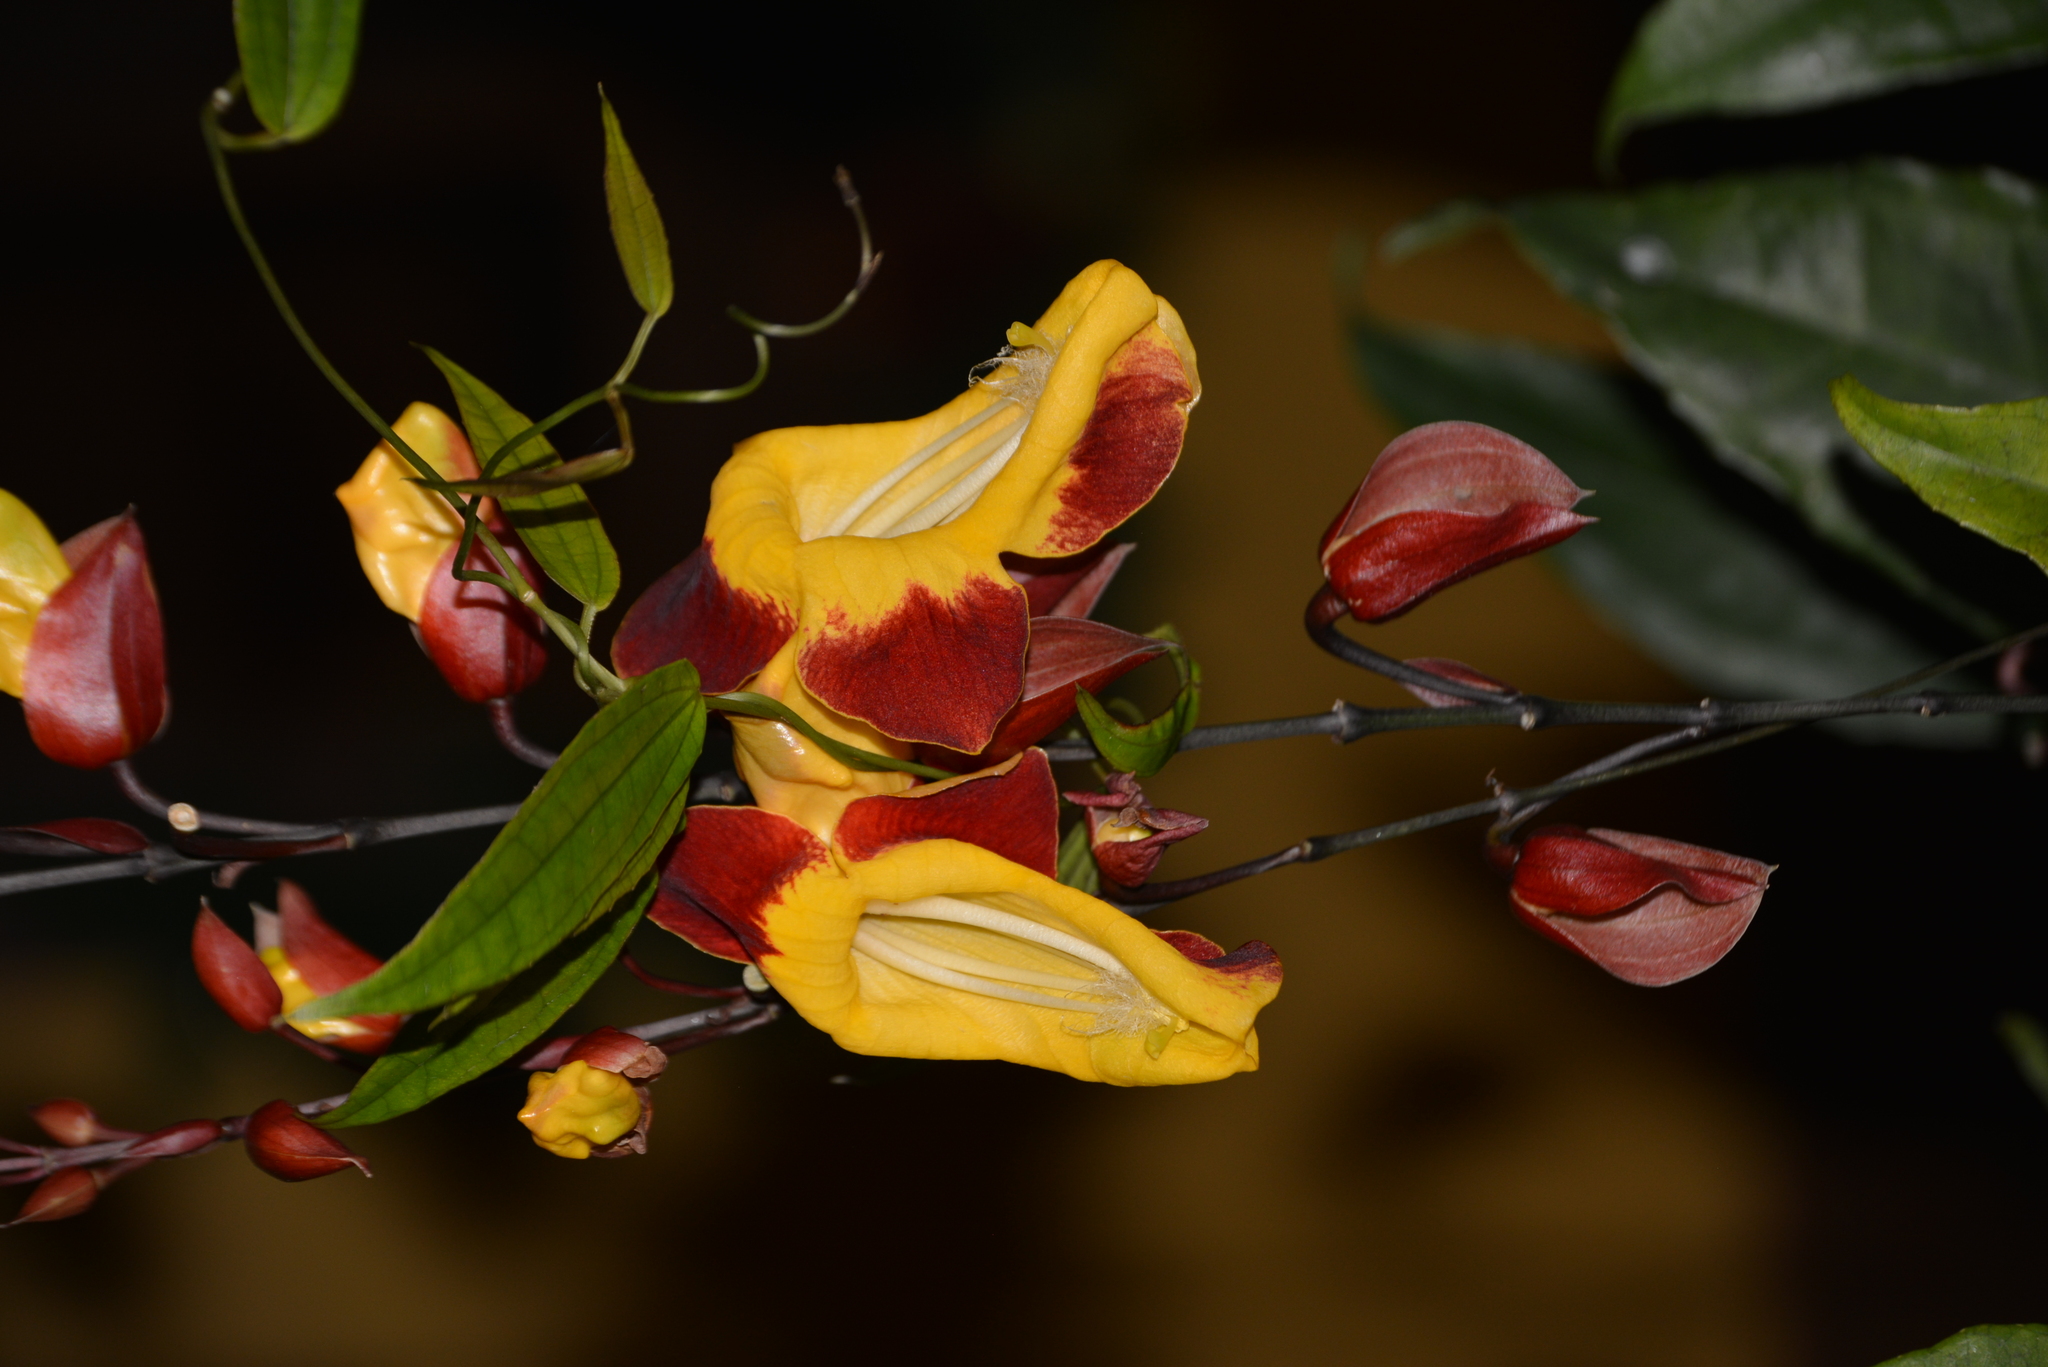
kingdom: Plantae
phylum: Tracheophyta
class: Magnoliopsida
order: Lamiales
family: Acanthaceae
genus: Thunbergia
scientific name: Thunbergia mysorensis
